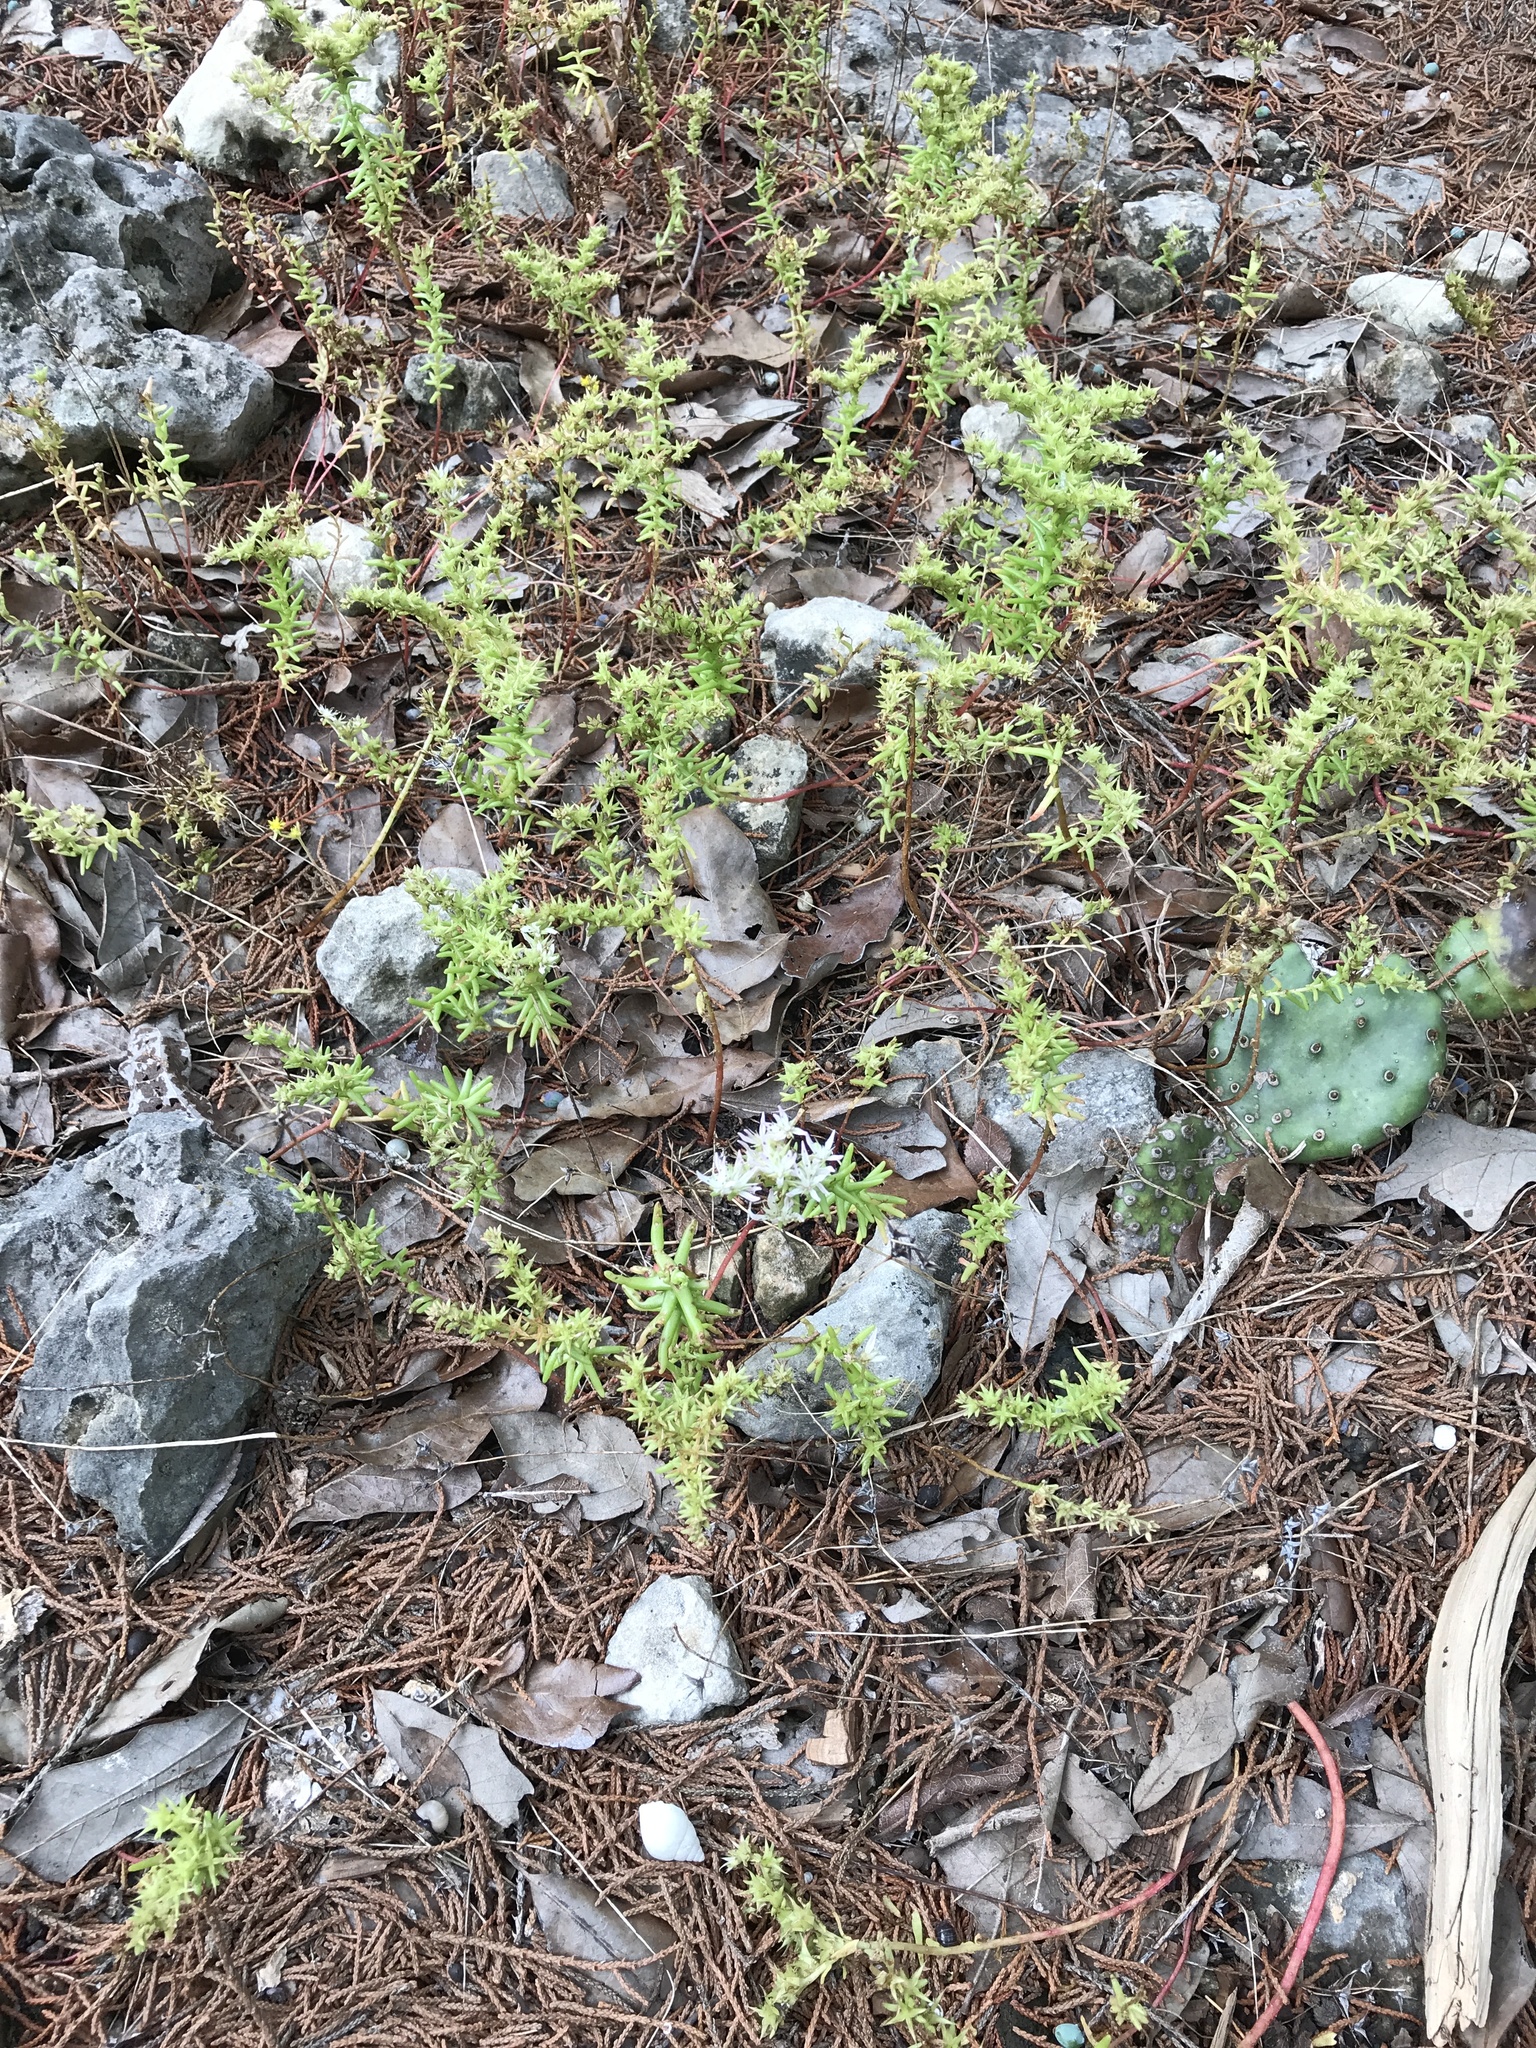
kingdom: Plantae
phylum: Tracheophyta
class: Magnoliopsida
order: Saxifragales
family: Crassulaceae
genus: Sedum
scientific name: Sedum pulchellum
